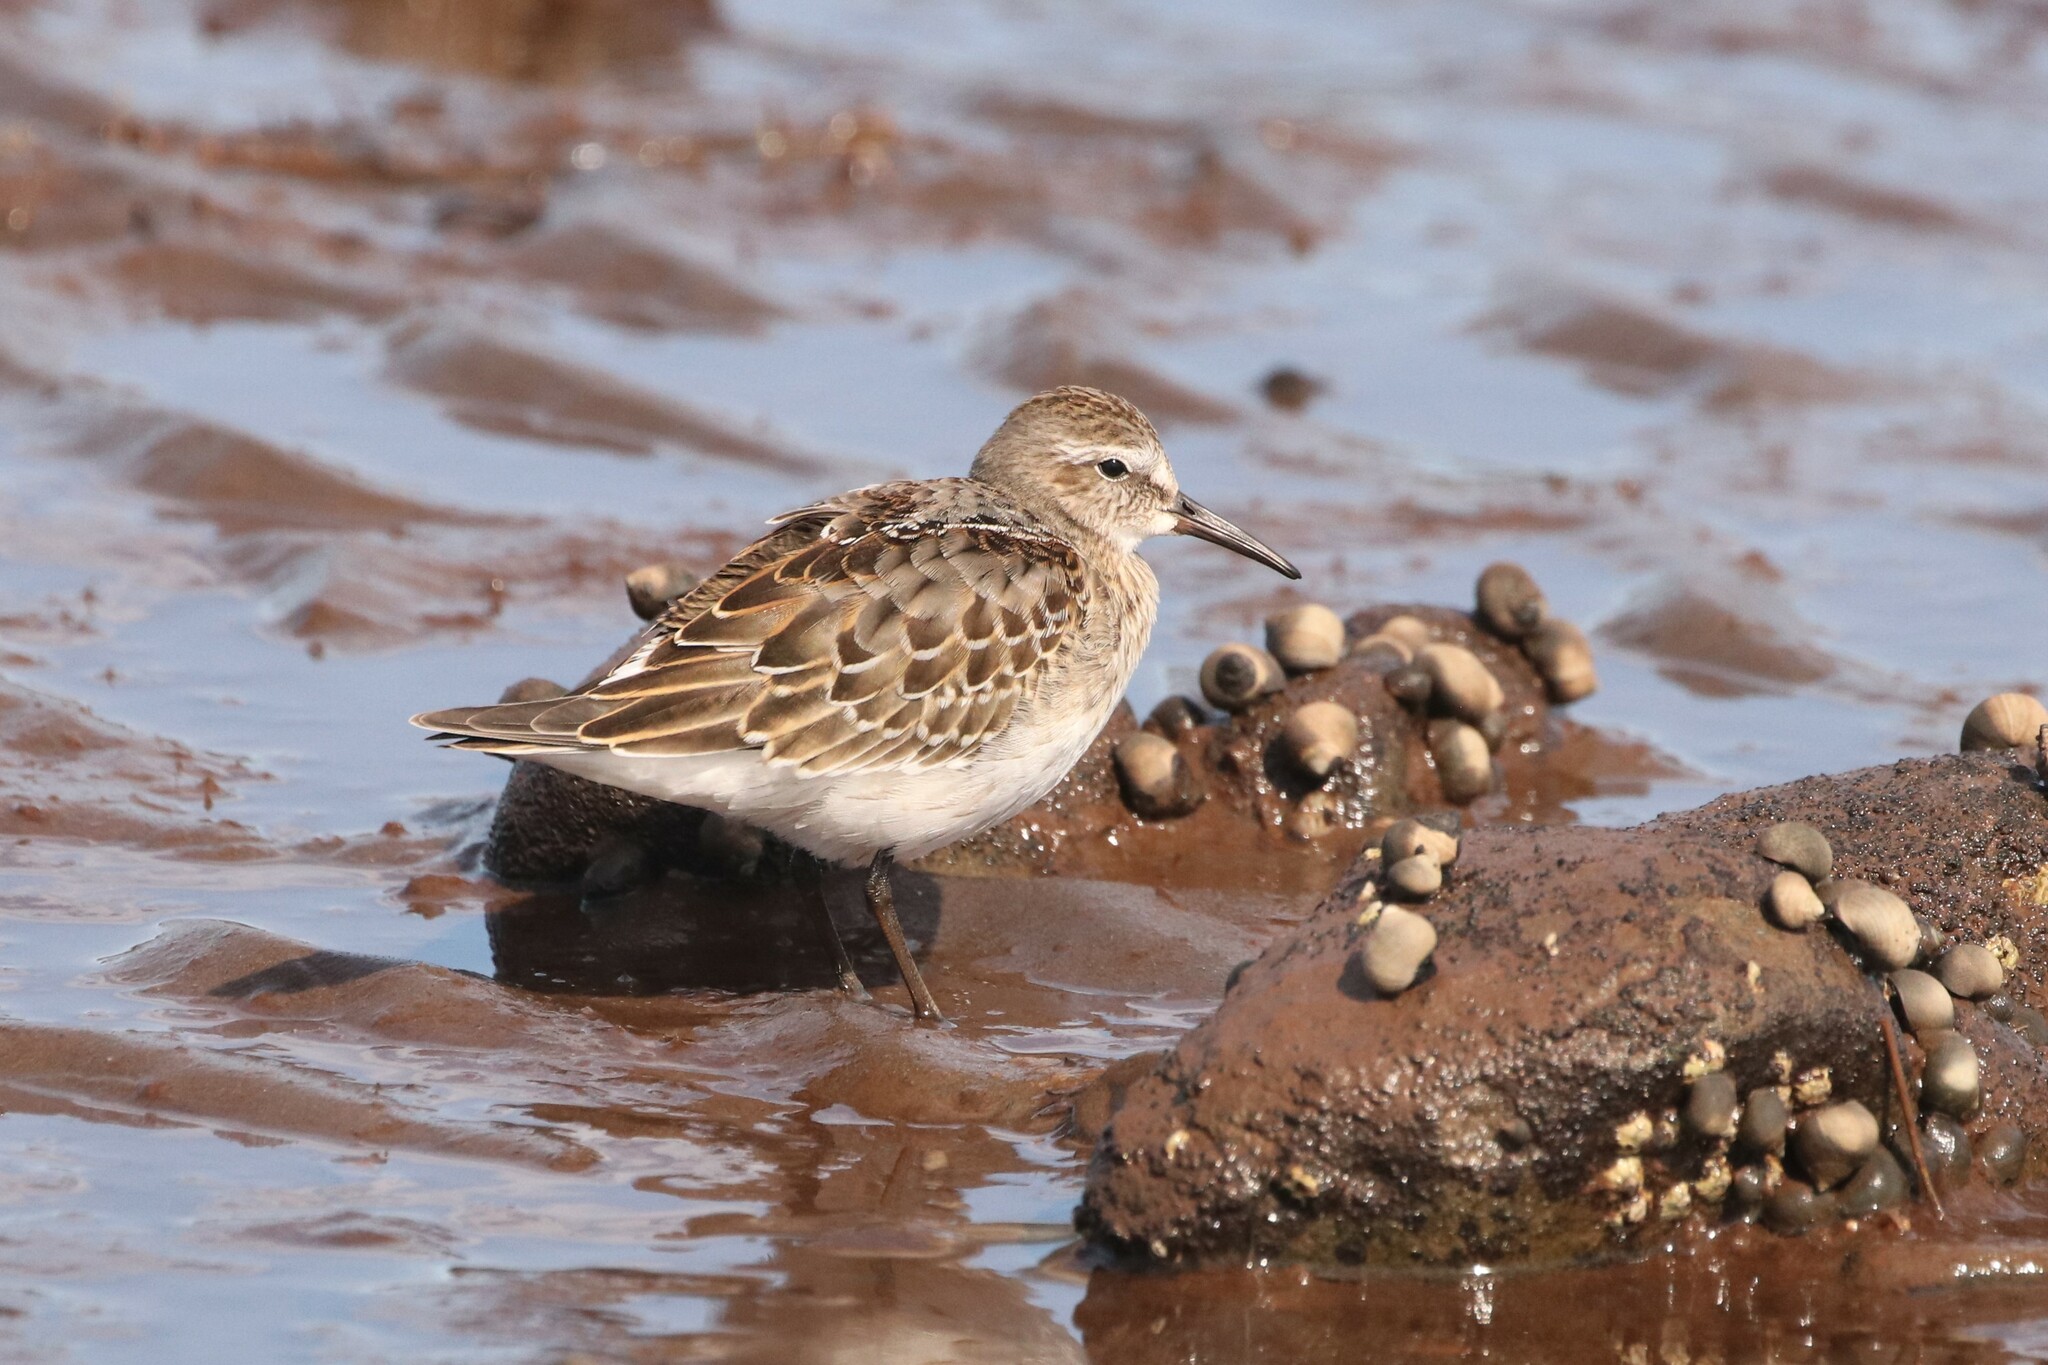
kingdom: Animalia
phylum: Chordata
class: Aves
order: Charadriiformes
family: Scolopacidae
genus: Calidris
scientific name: Calidris pusilla
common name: Semipalmated sandpiper
